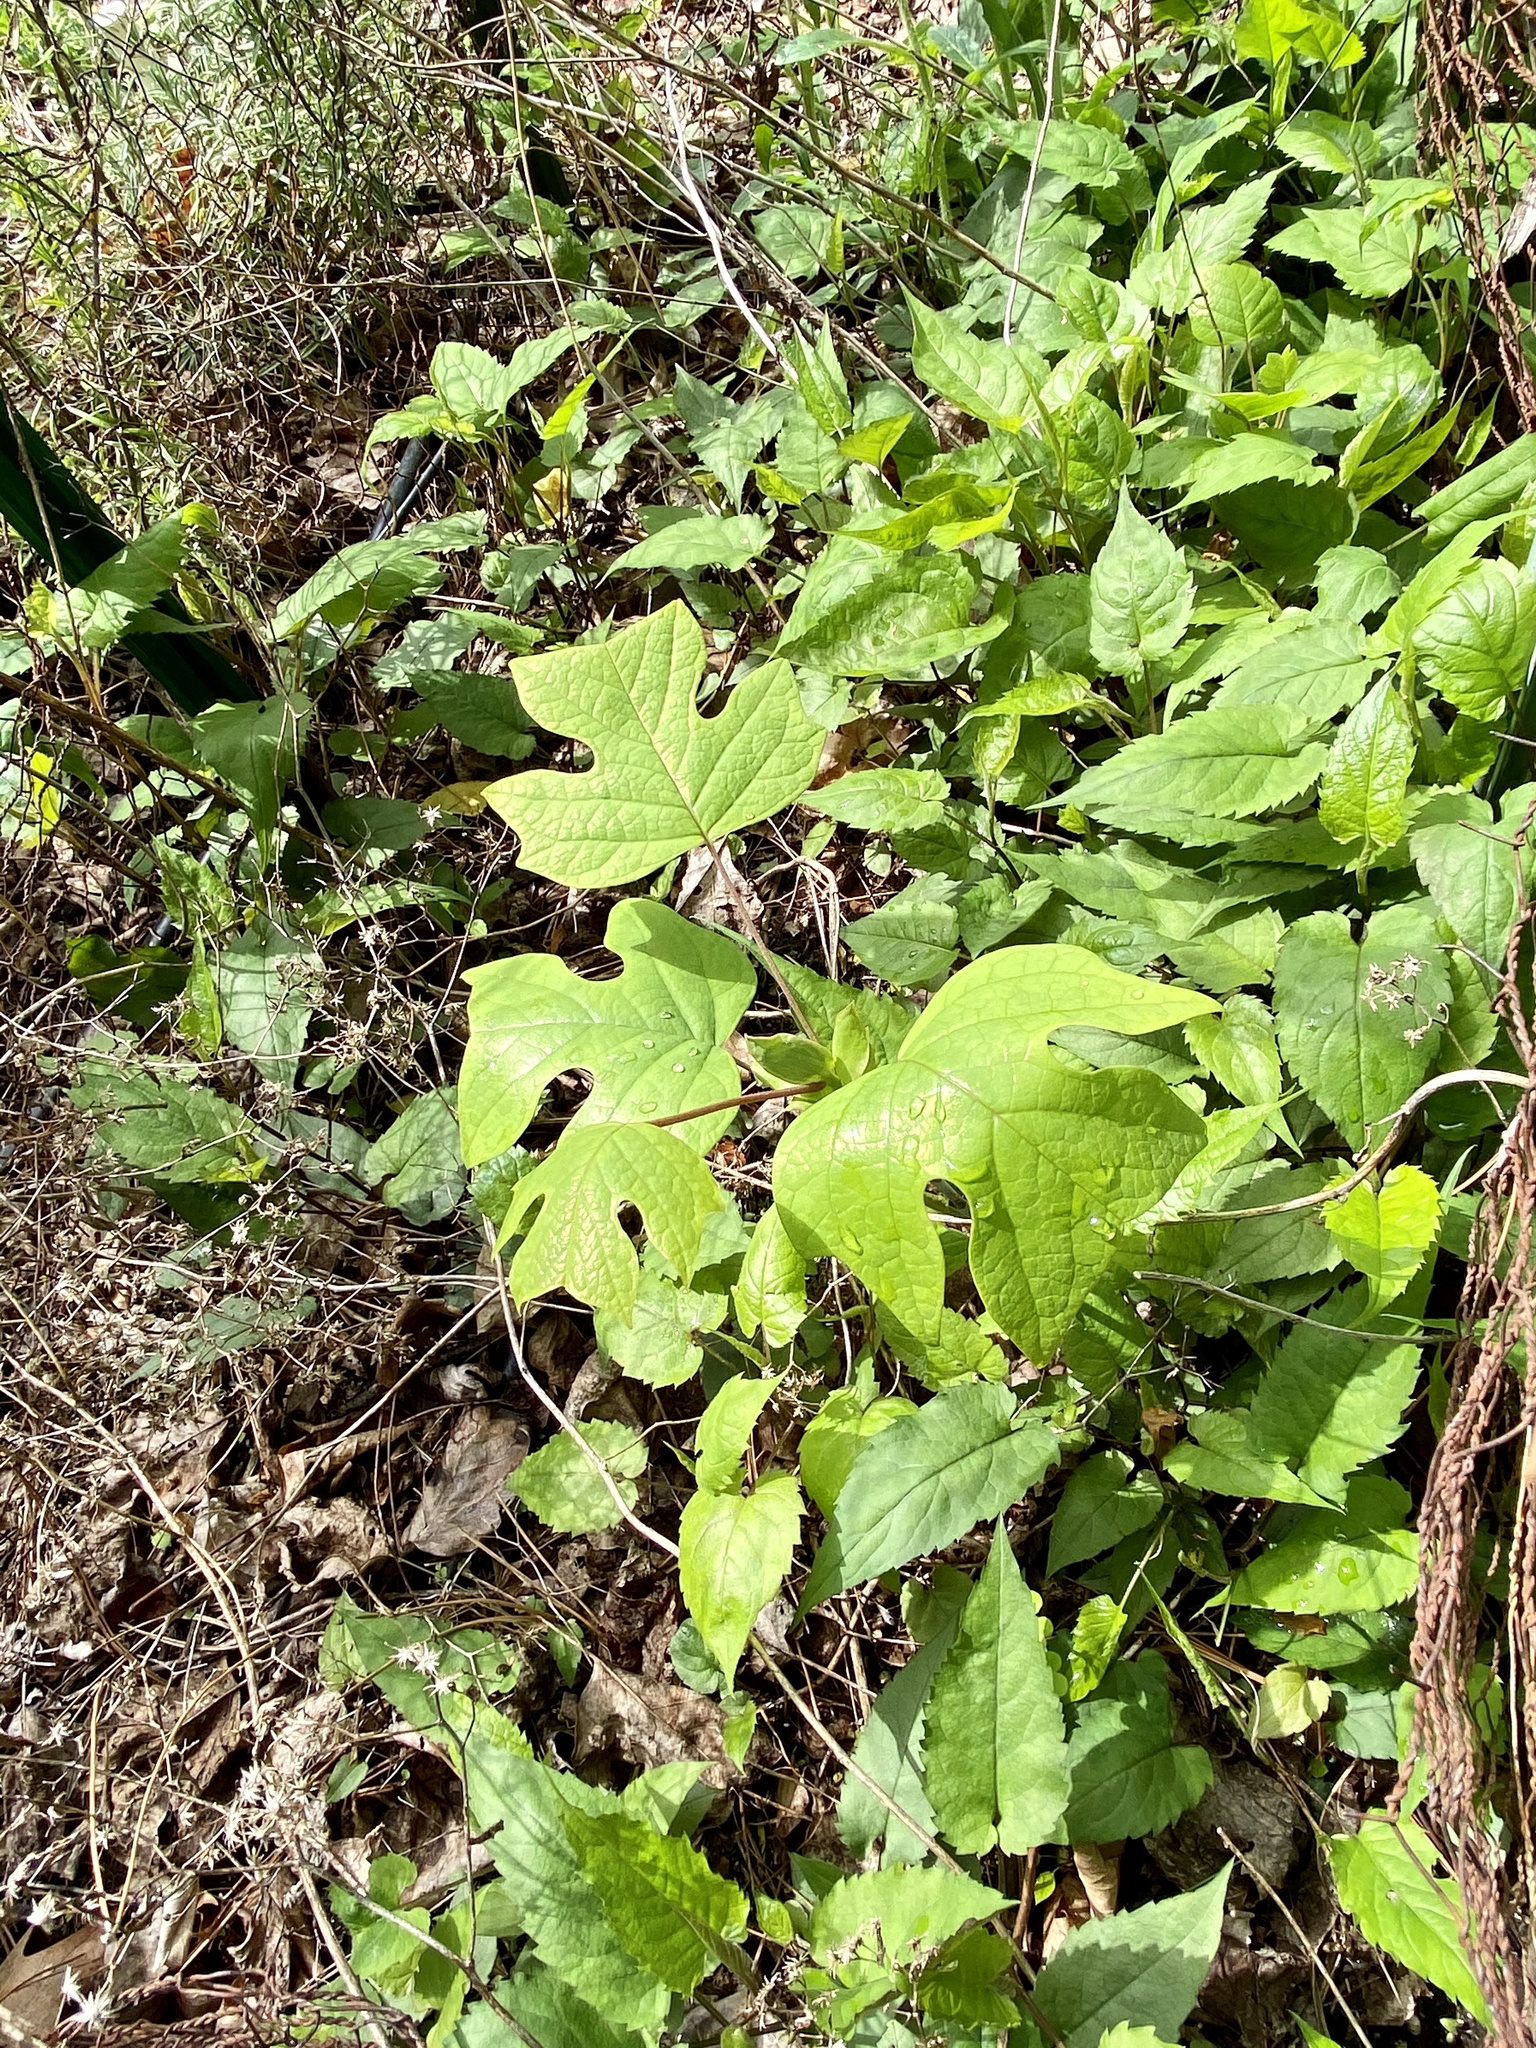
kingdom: Plantae
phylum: Tracheophyta
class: Magnoliopsida
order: Magnoliales
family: Magnoliaceae
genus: Liriodendron
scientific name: Liriodendron tulipifera
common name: Tulip tree
